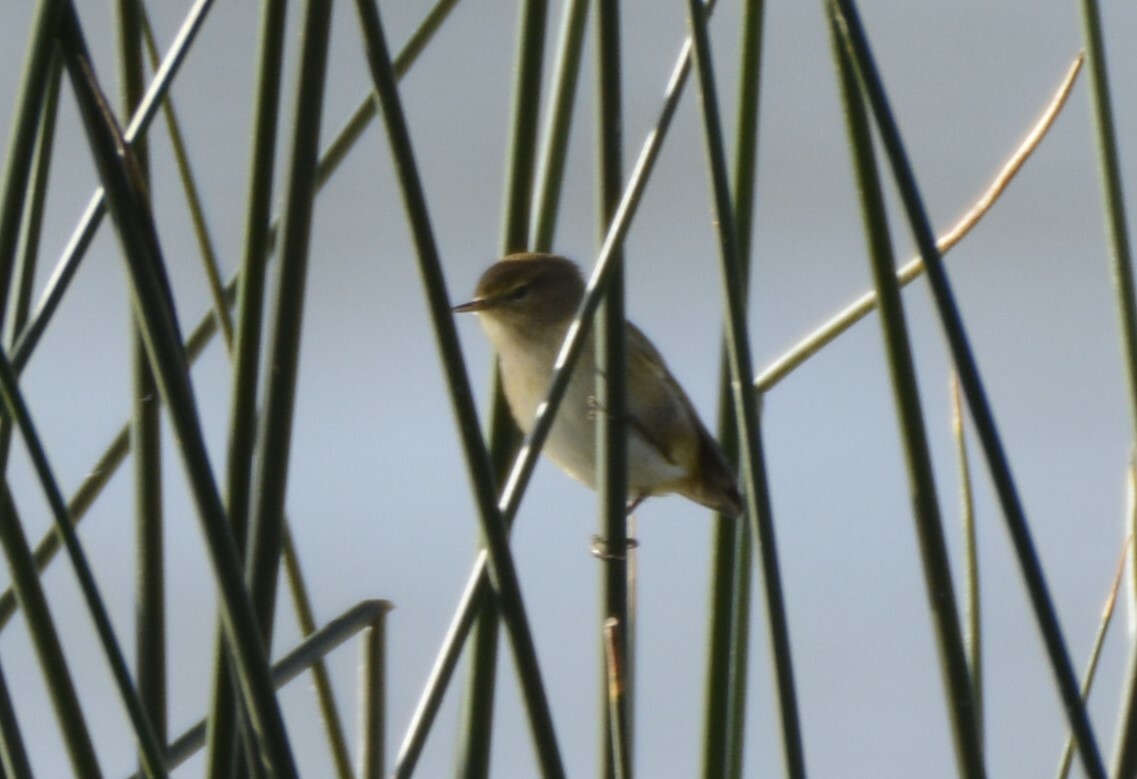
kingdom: Animalia
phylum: Chordata
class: Aves
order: Passeriformes
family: Phylloscopidae
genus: Phylloscopus
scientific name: Phylloscopus collybita
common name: Common chiffchaff
